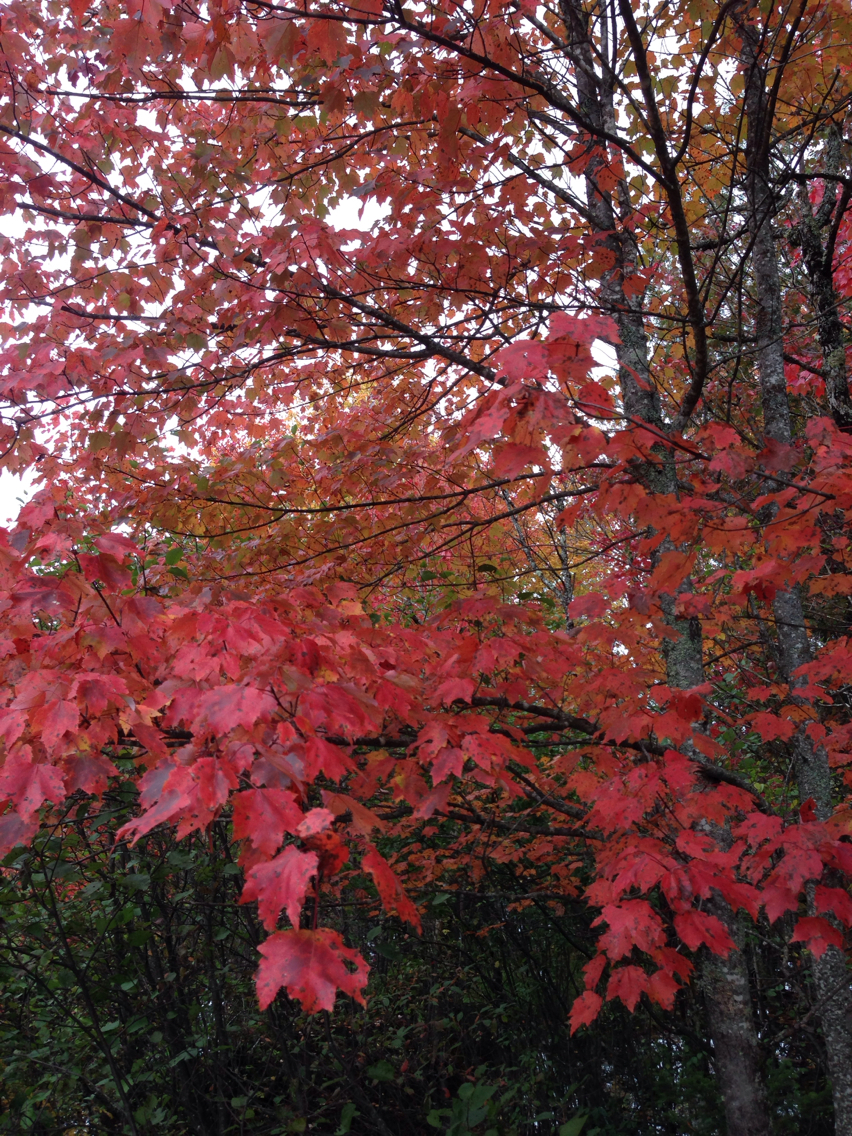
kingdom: Plantae
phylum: Tracheophyta
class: Magnoliopsida
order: Sapindales
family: Sapindaceae
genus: Acer
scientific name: Acer rubrum
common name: Red maple
